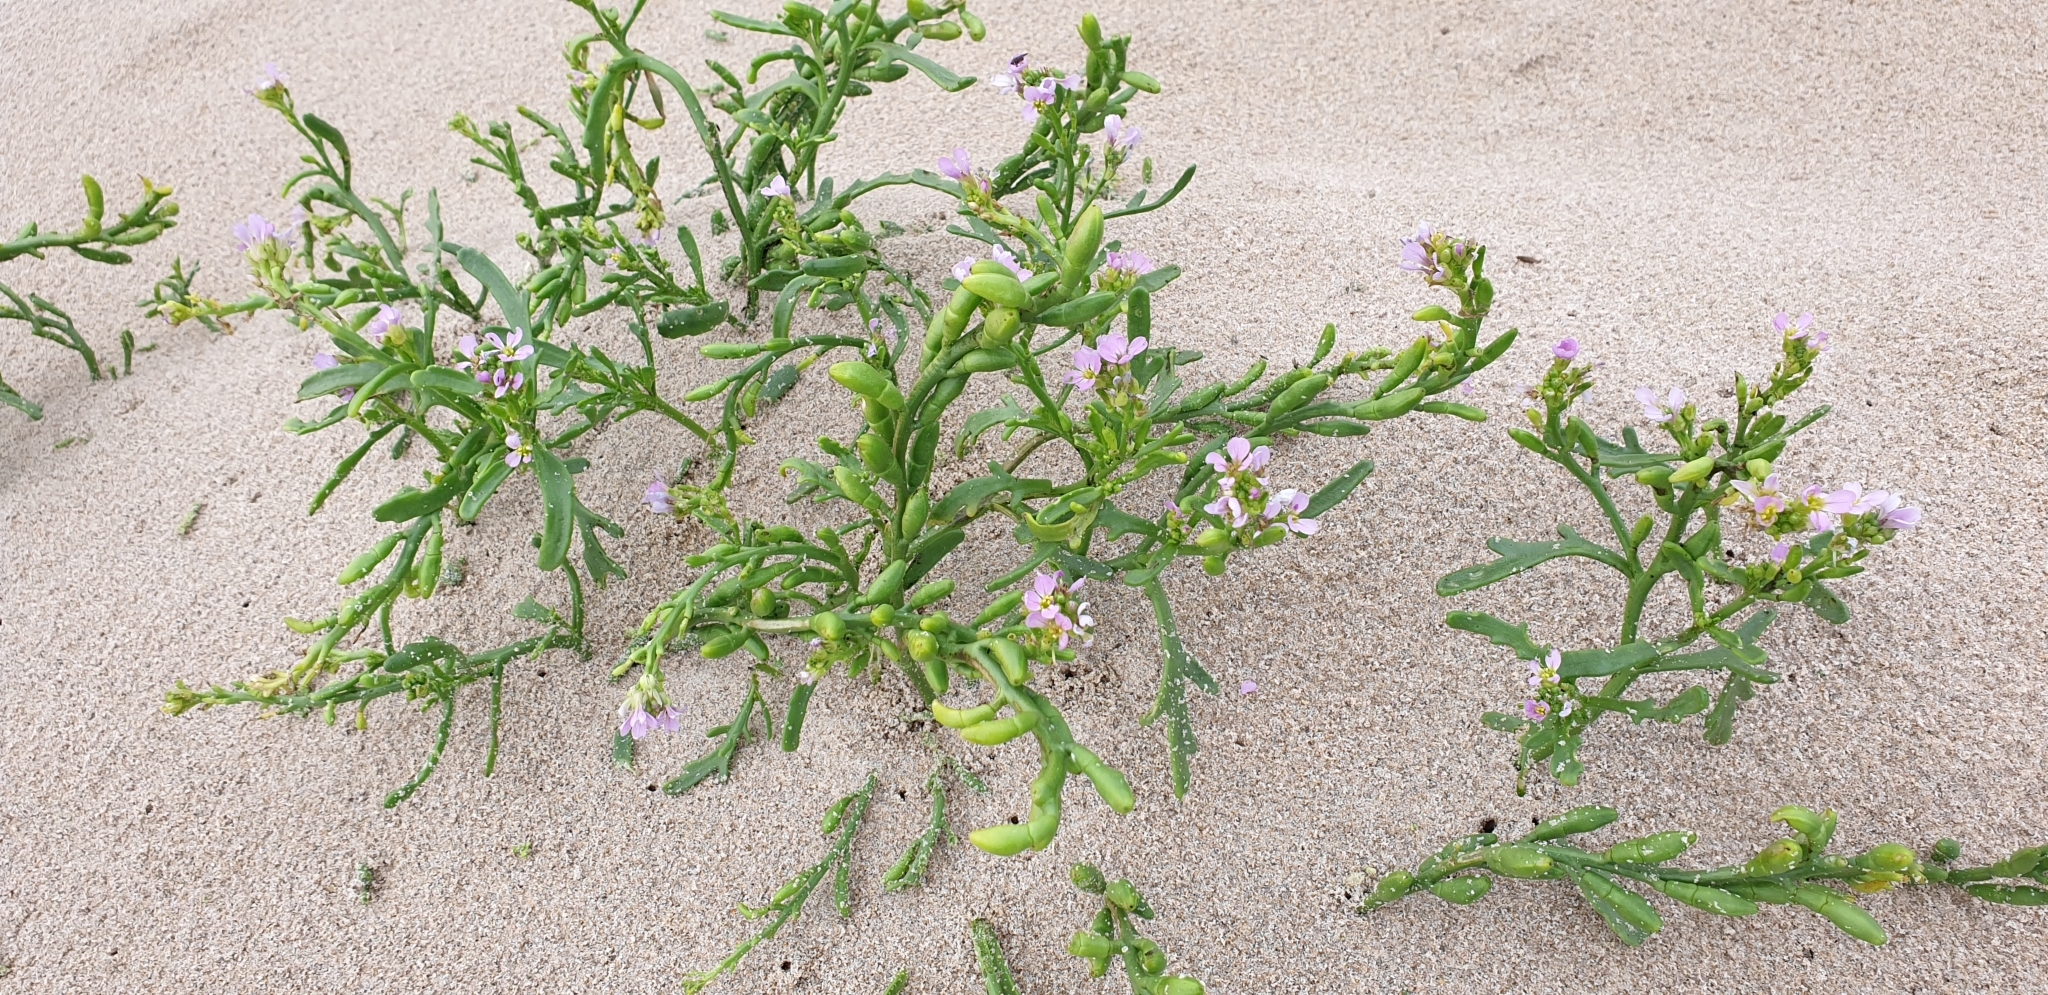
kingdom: Plantae
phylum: Tracheophyta
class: Magnoliopsida
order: Brassicales
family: Brassicaceae
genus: Cakile
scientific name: Cakile maritima
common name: Sea rocket
